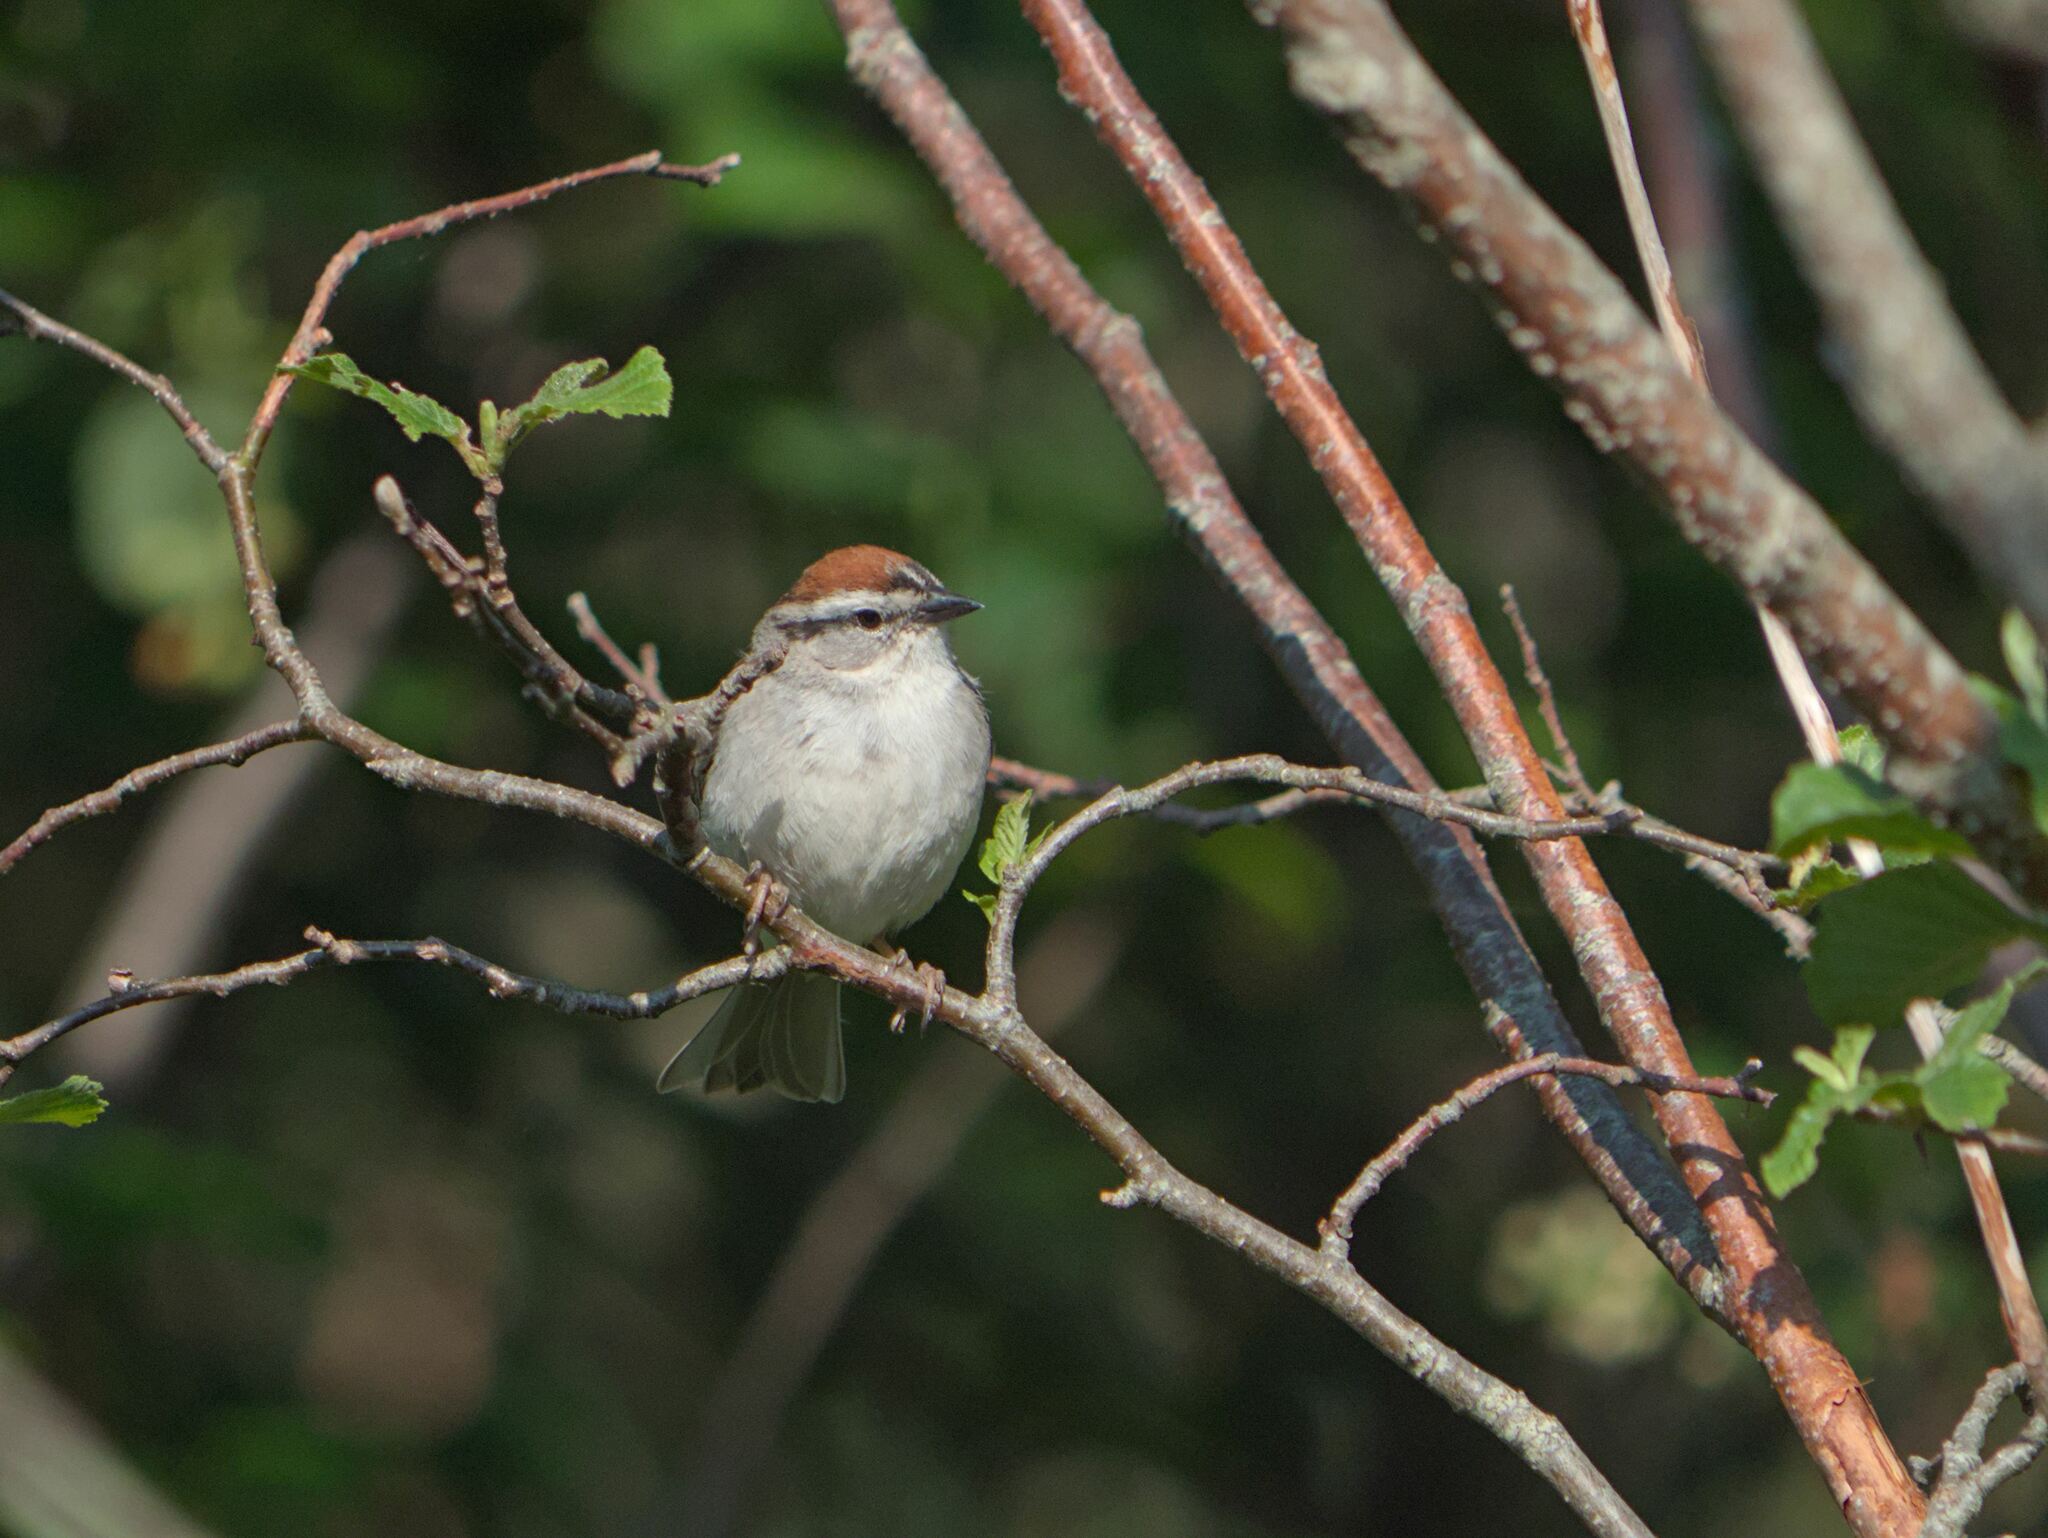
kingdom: Animalia
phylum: Chordata
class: Aves
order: Passeriformes
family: Passerellidae
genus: Spizella
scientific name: Spizella passerina
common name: Chipping sparrow
